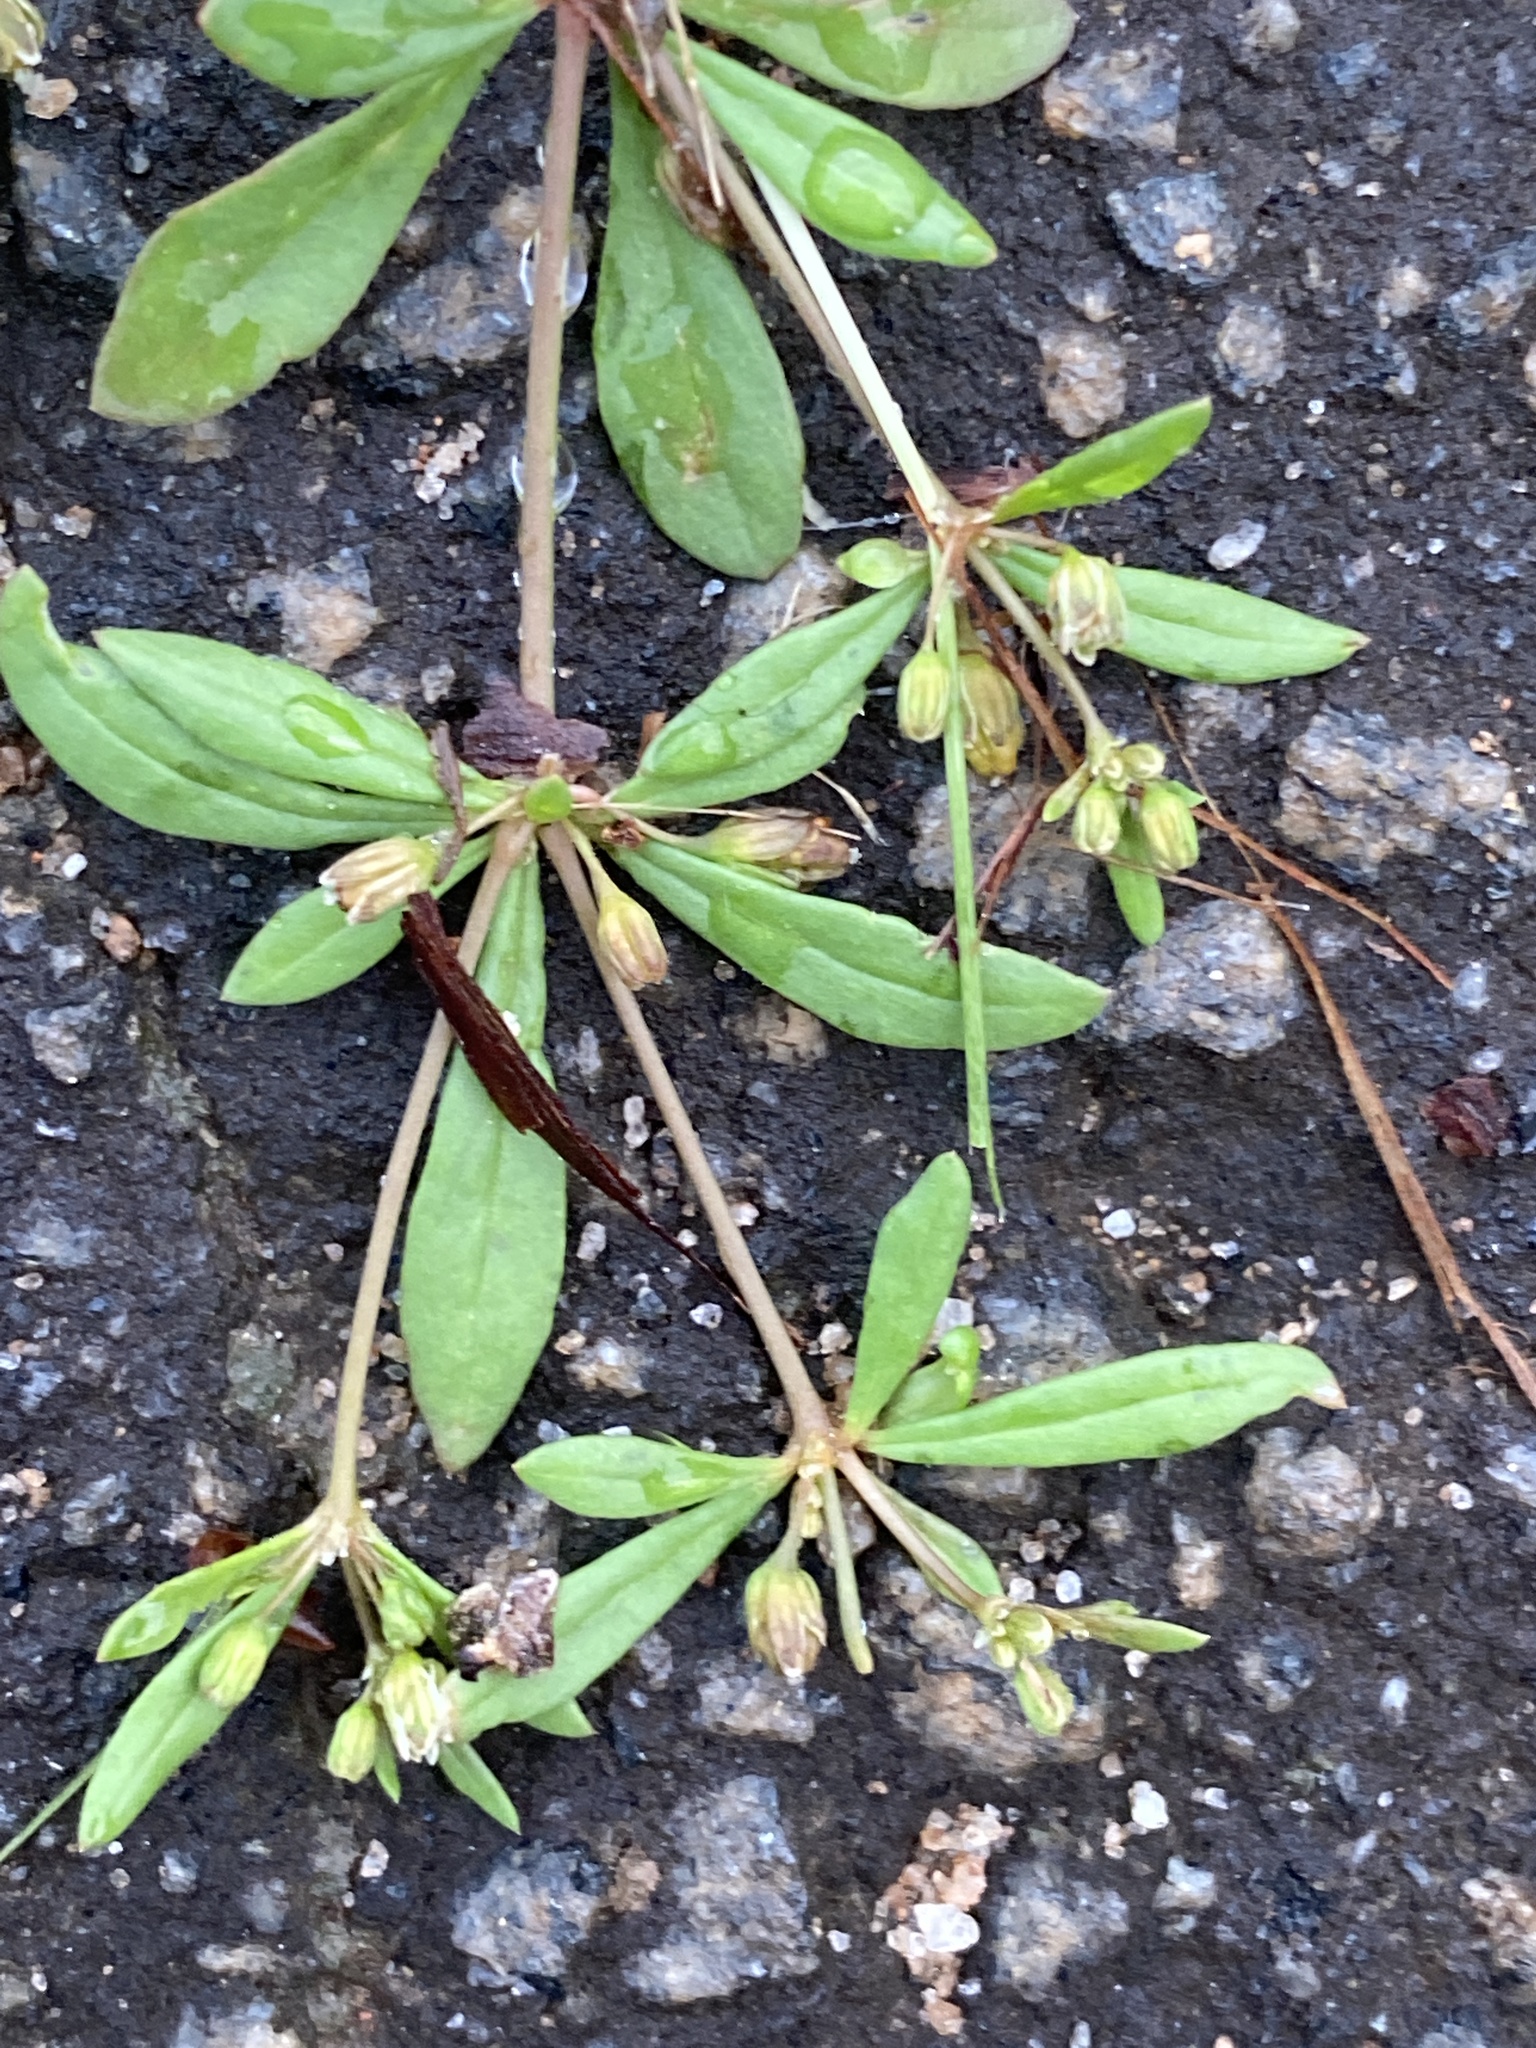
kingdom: Plantae
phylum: Tracheophyta
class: Magnoliopsida
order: Caryophyllales
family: Molluginaceae
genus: Mollugo
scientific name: Mollugo verticillata
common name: Green carpetweed
